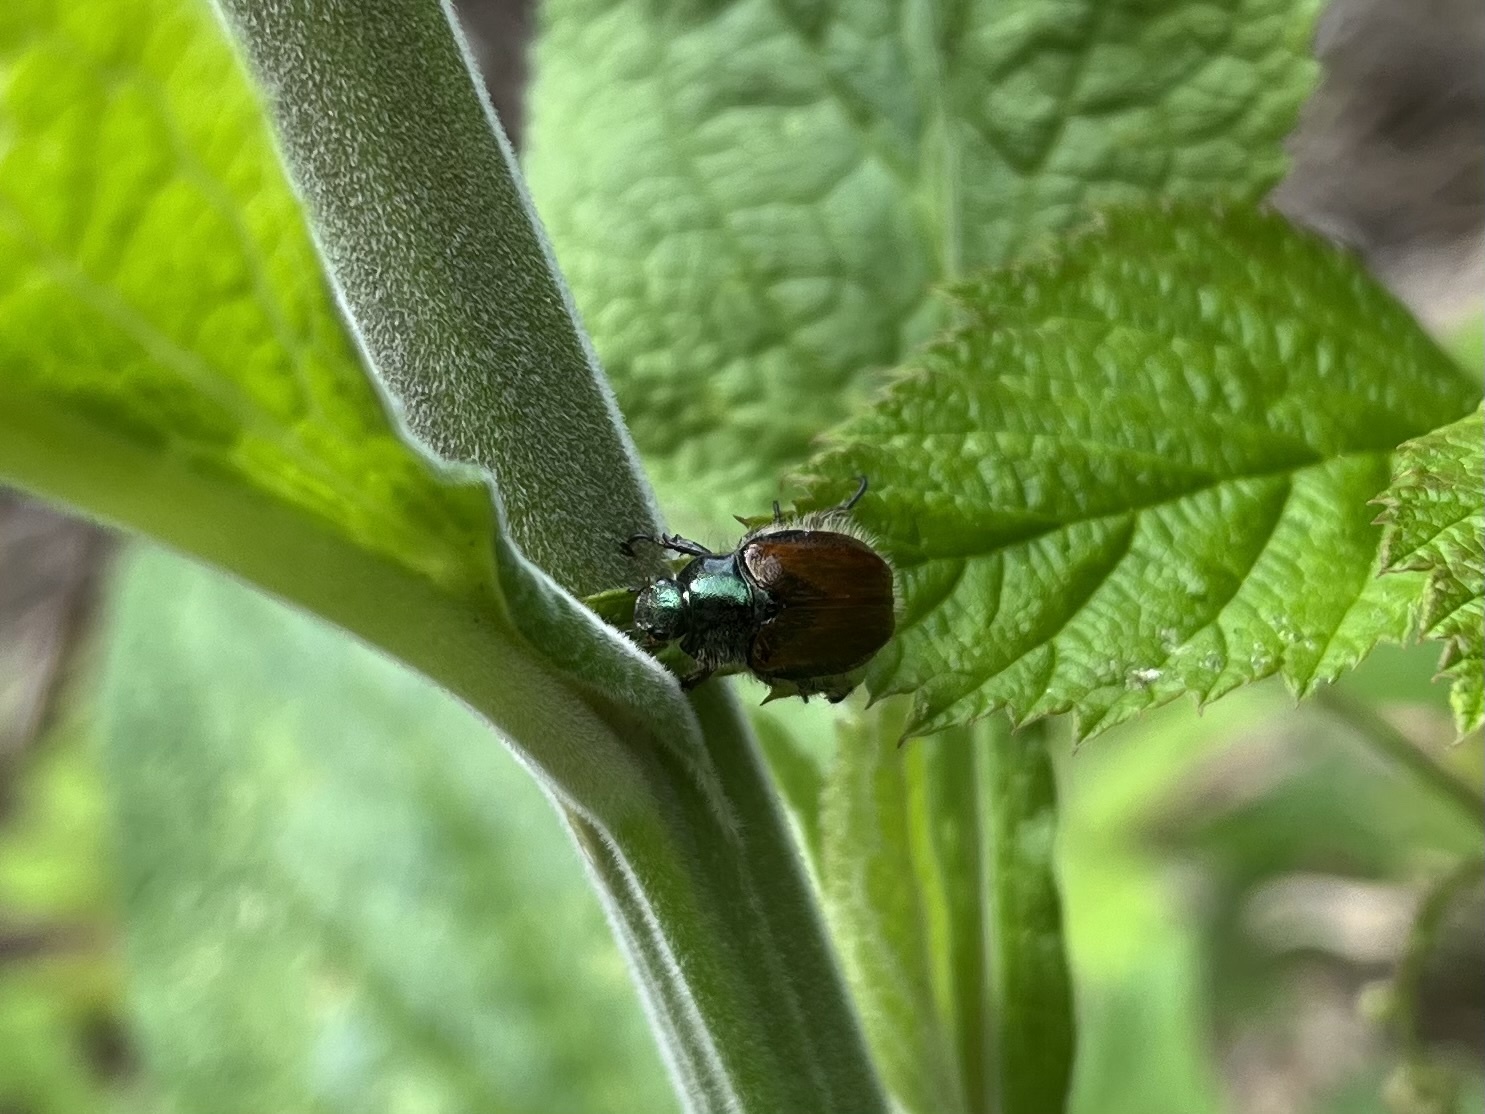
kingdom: Animalia
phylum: Arthropoda
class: Insecta
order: Coleoptera
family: Scarabaeidae
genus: Phyllopertha
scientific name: Phyllopertha horticola
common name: Garden chafer
